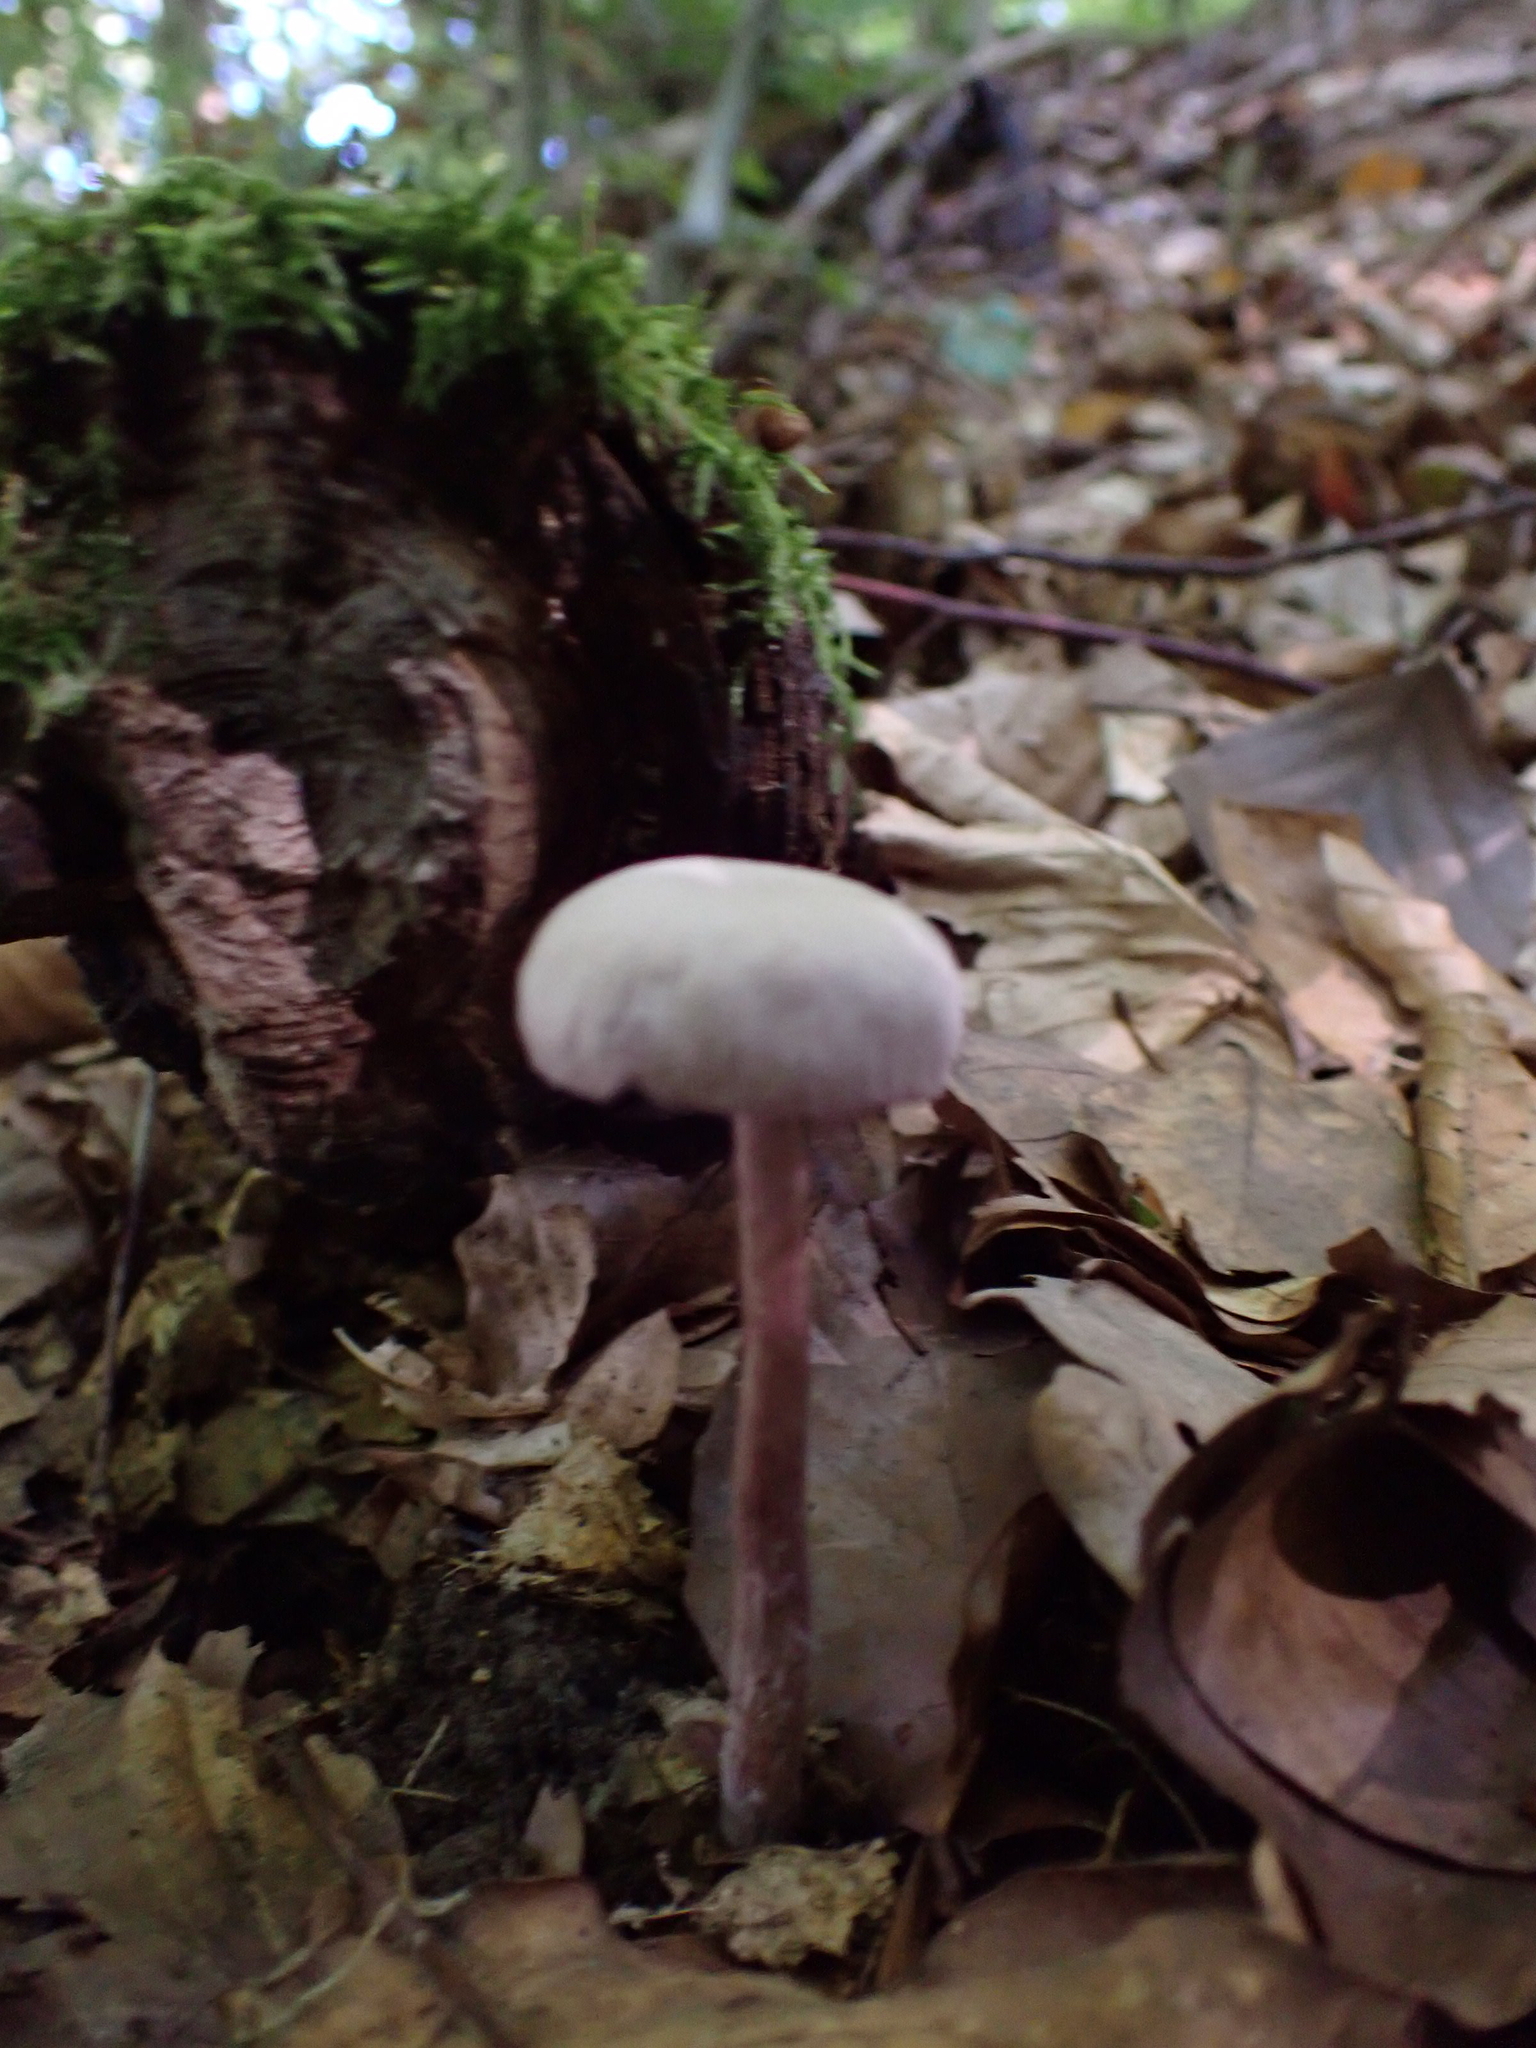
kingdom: Fungi
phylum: Basidiomycota
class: Agaricomycetes
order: Agaricales
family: Hydnangiaceae
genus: Laccaria
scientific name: Laccaria amethystina
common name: Amethyst deceiver
